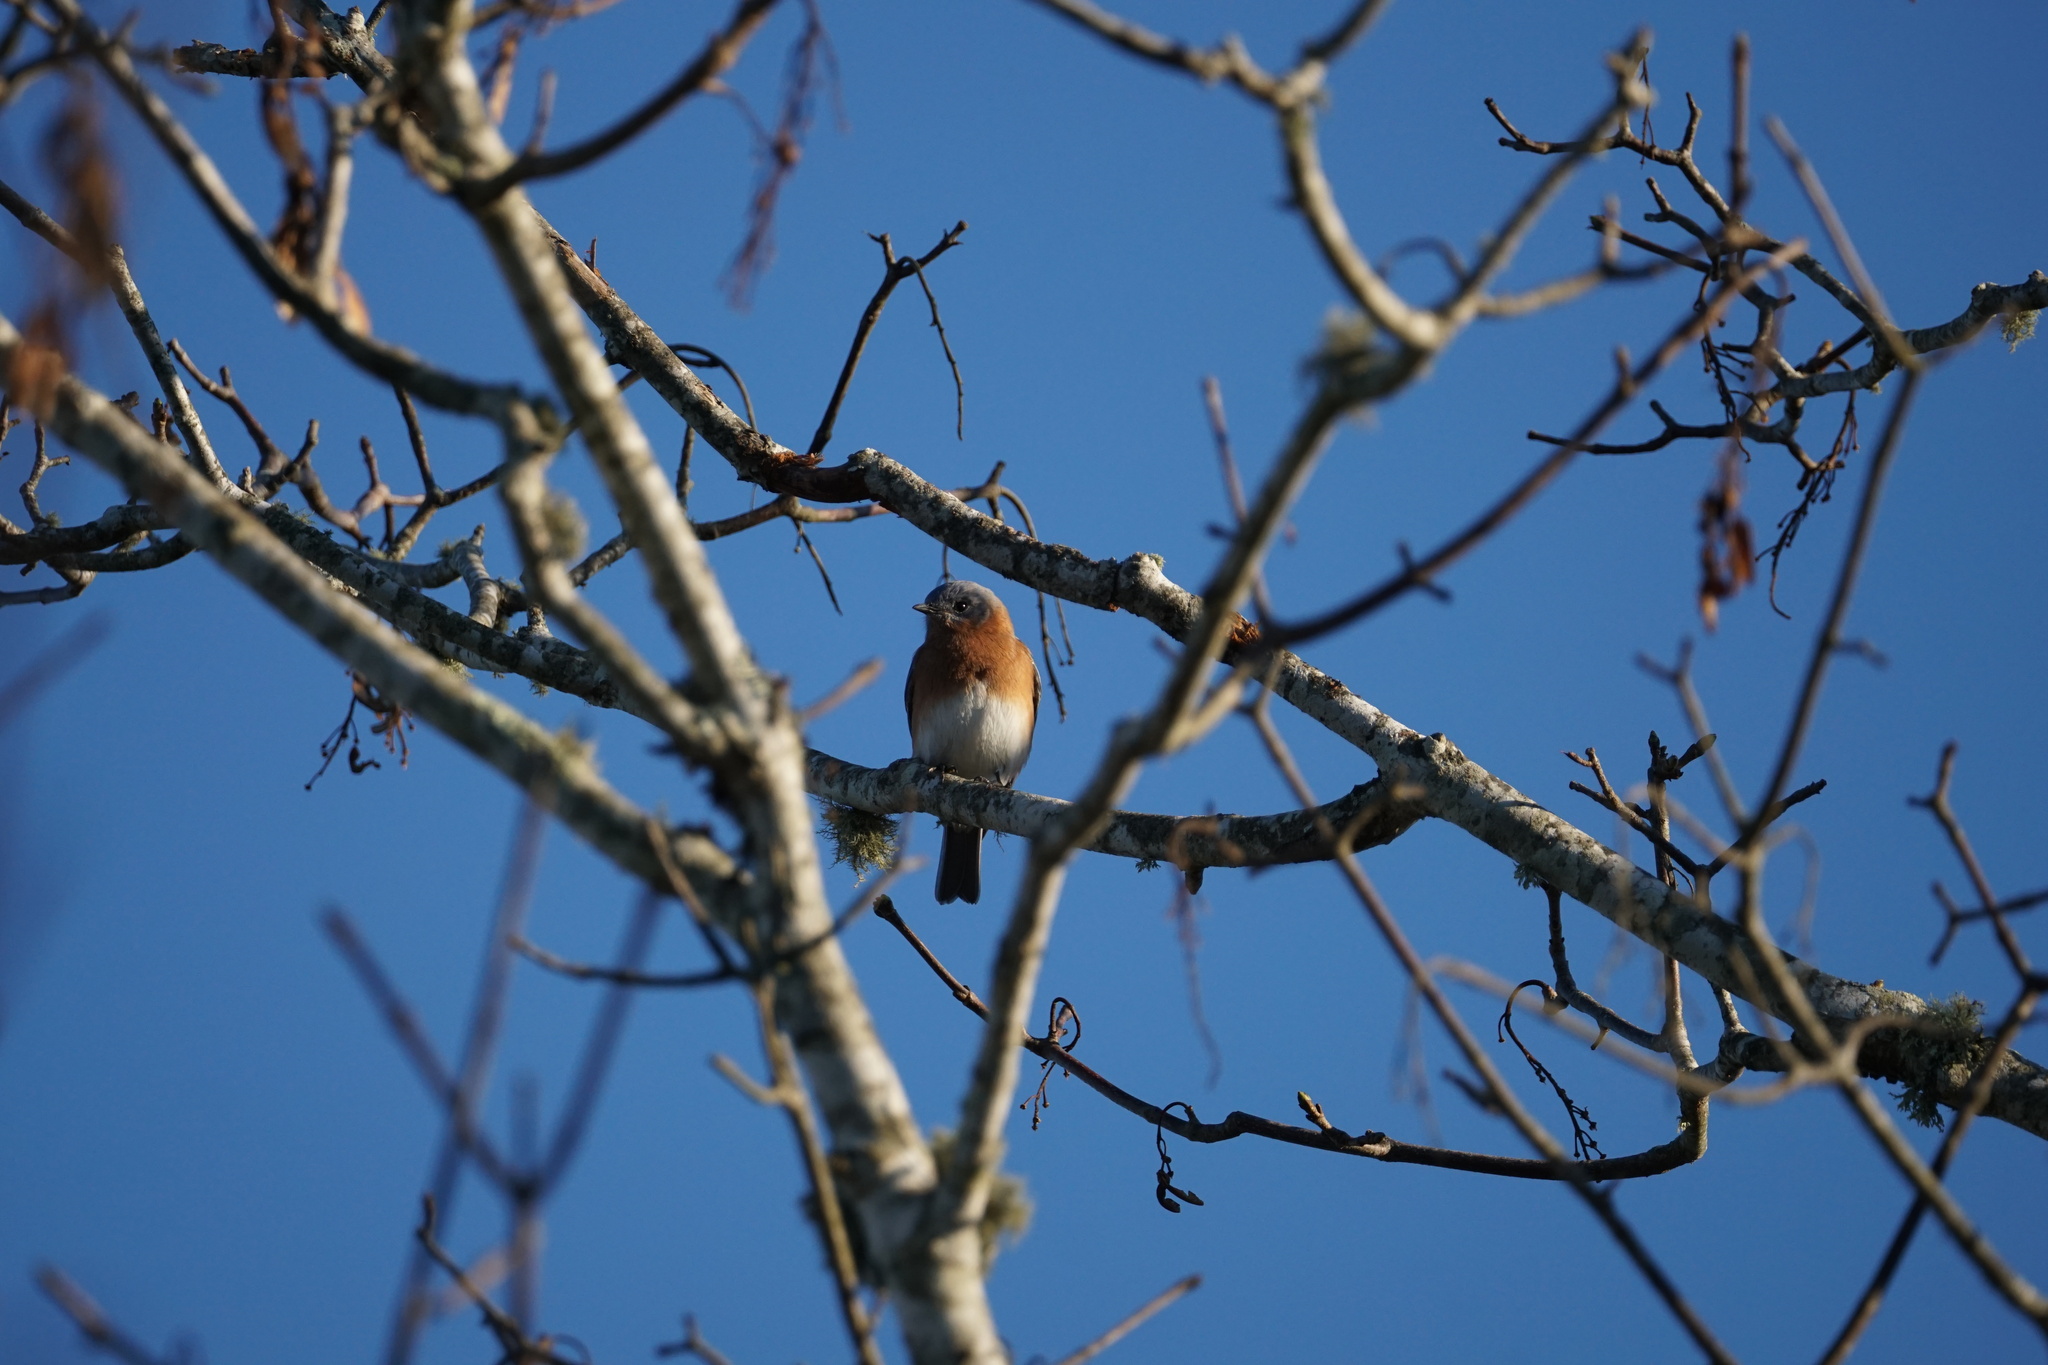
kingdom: Animalia
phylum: Chordata
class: Aves
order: Passeriformes
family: Turdidae
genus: Sialia
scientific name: Sialia sialis
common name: Eastern bluebird
